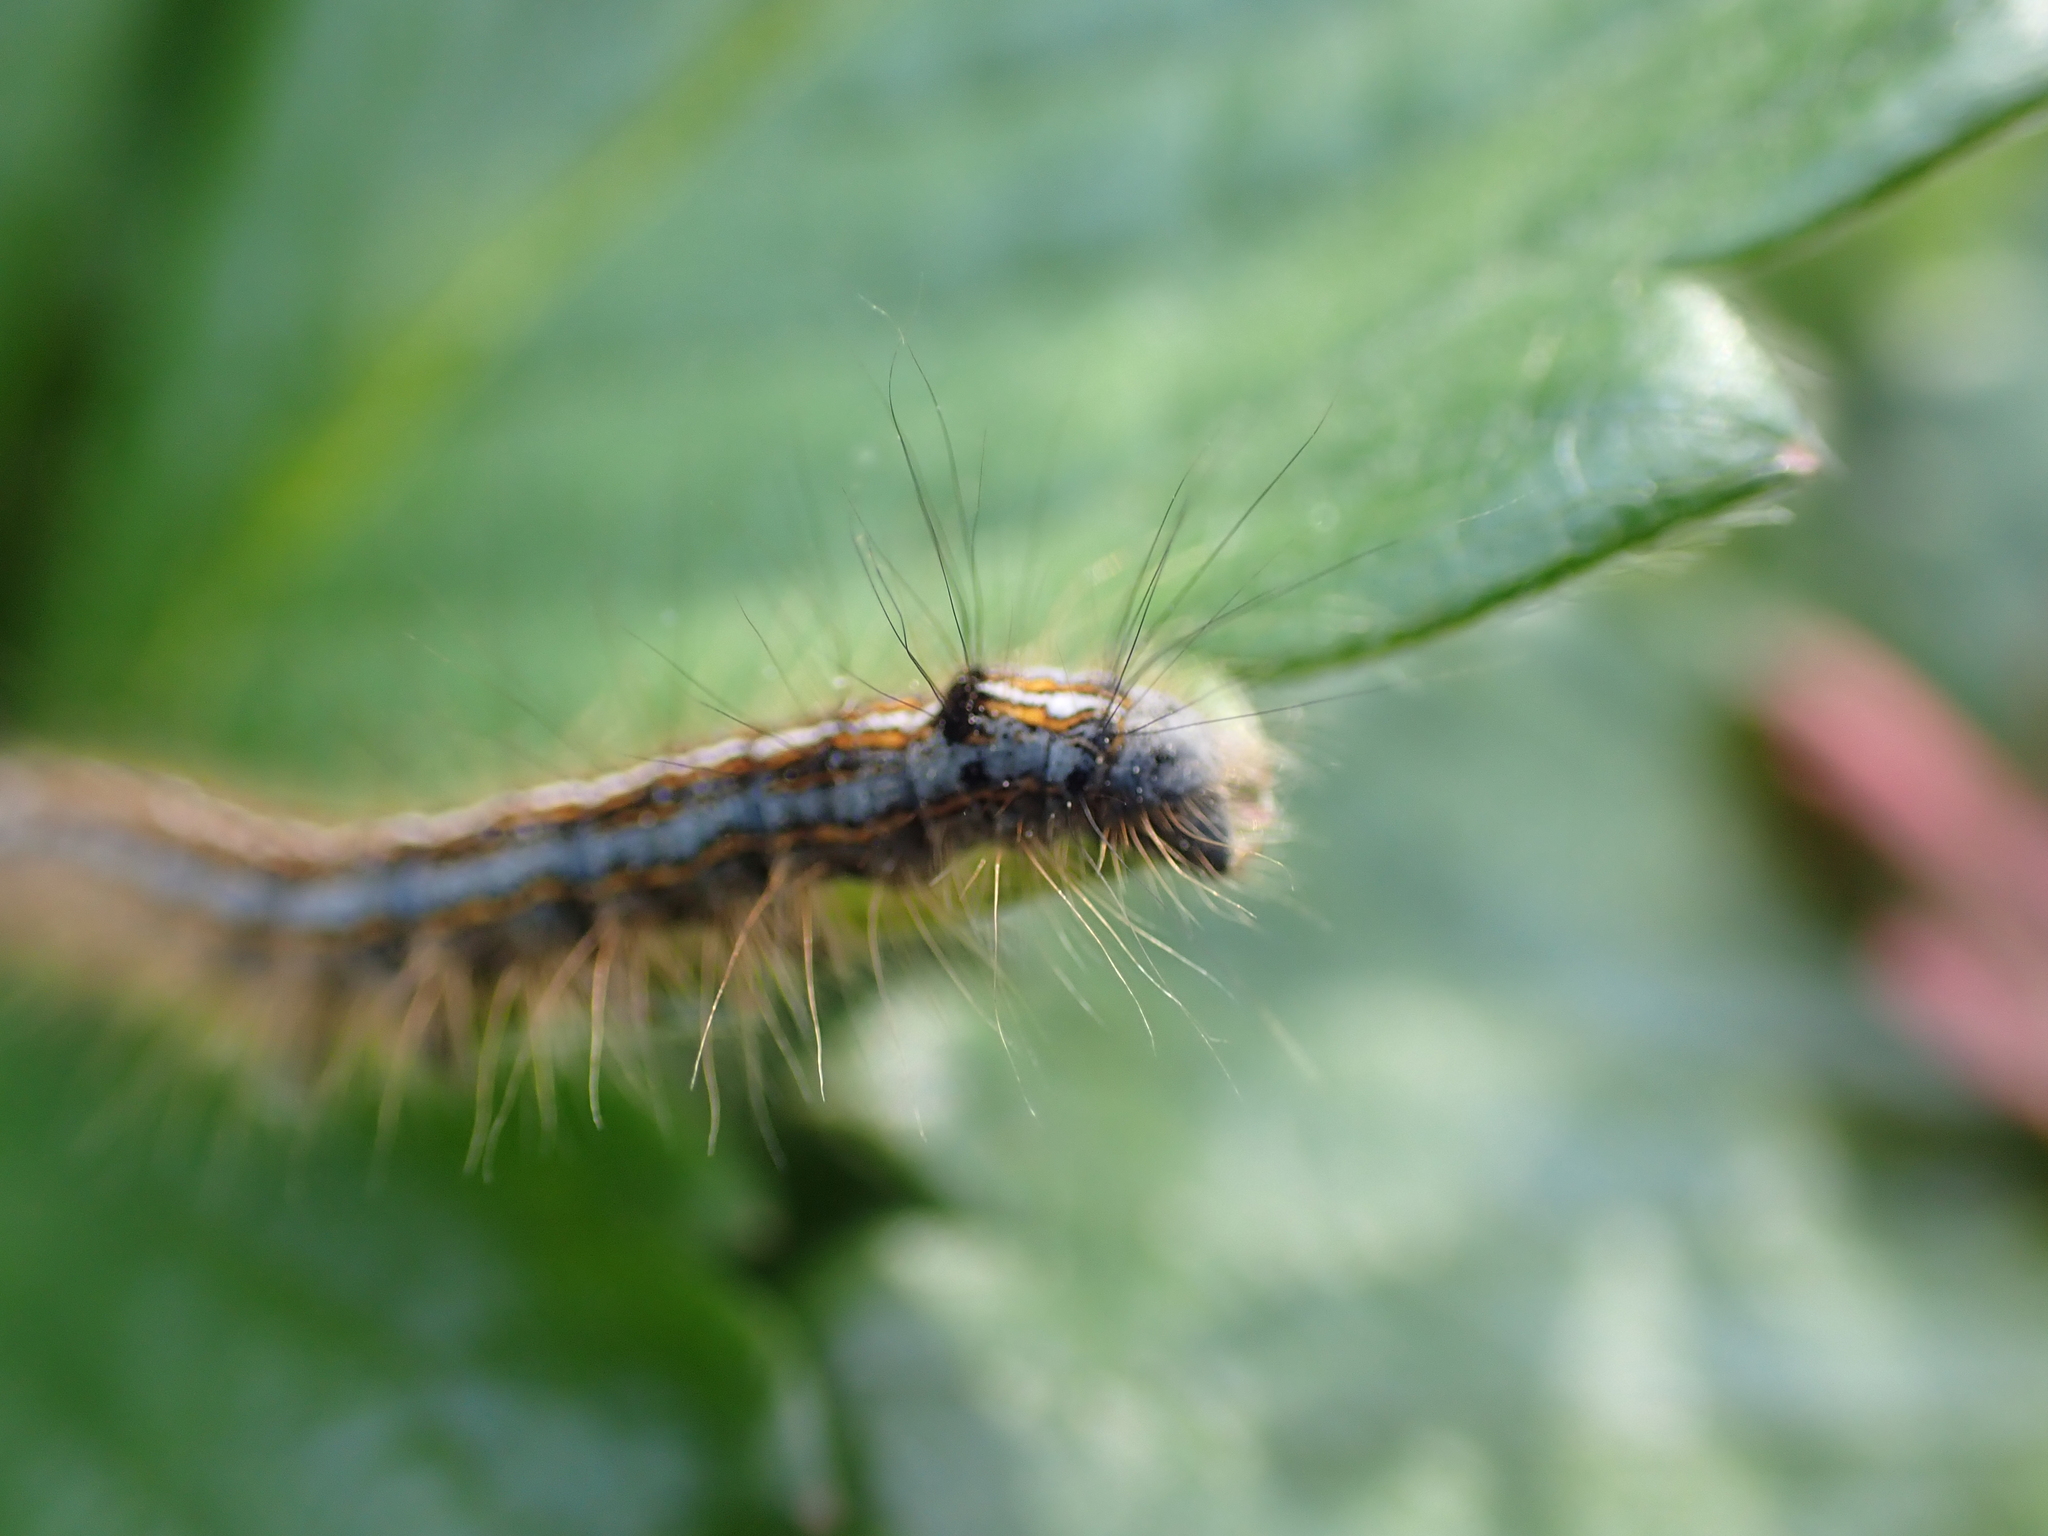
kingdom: Animalia
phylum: Arthropoda
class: Insecta
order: Lepidoptera
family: Lasiocampidae
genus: Malacosoma
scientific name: Malacosoma neustria
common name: The lackey
